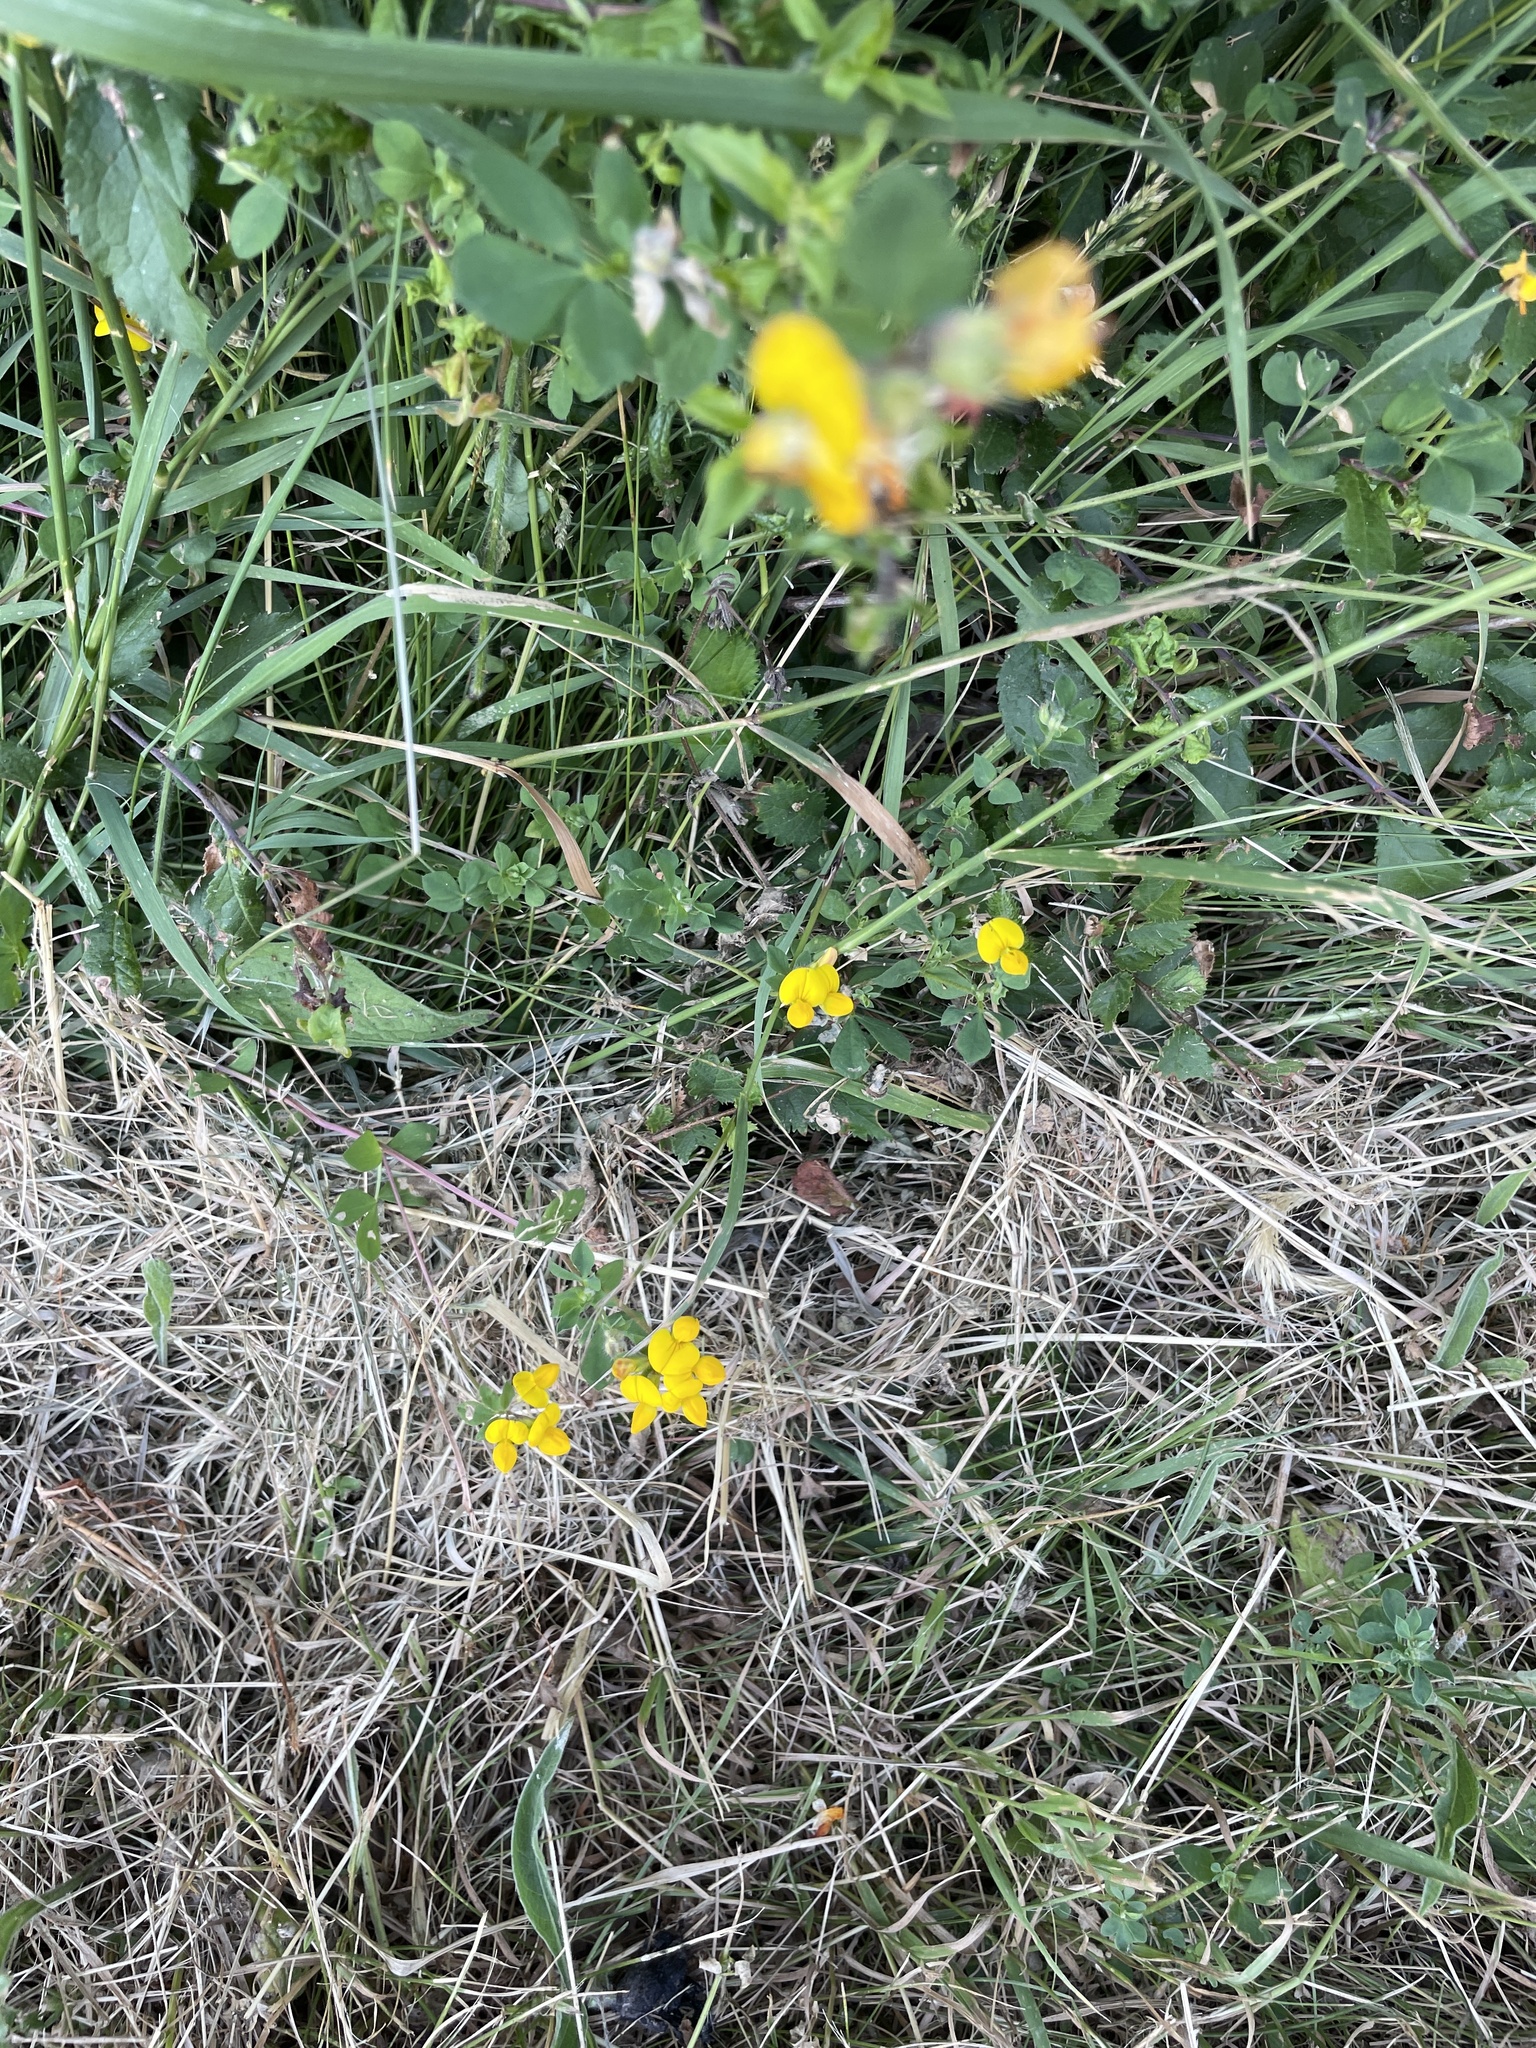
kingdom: Plantae
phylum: Tracheophyta
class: Magnoliopsida
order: Fabales
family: Fabaceae
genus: Lotus
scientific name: Lotus corniculatus
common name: Common bird's-foot-trefoil
